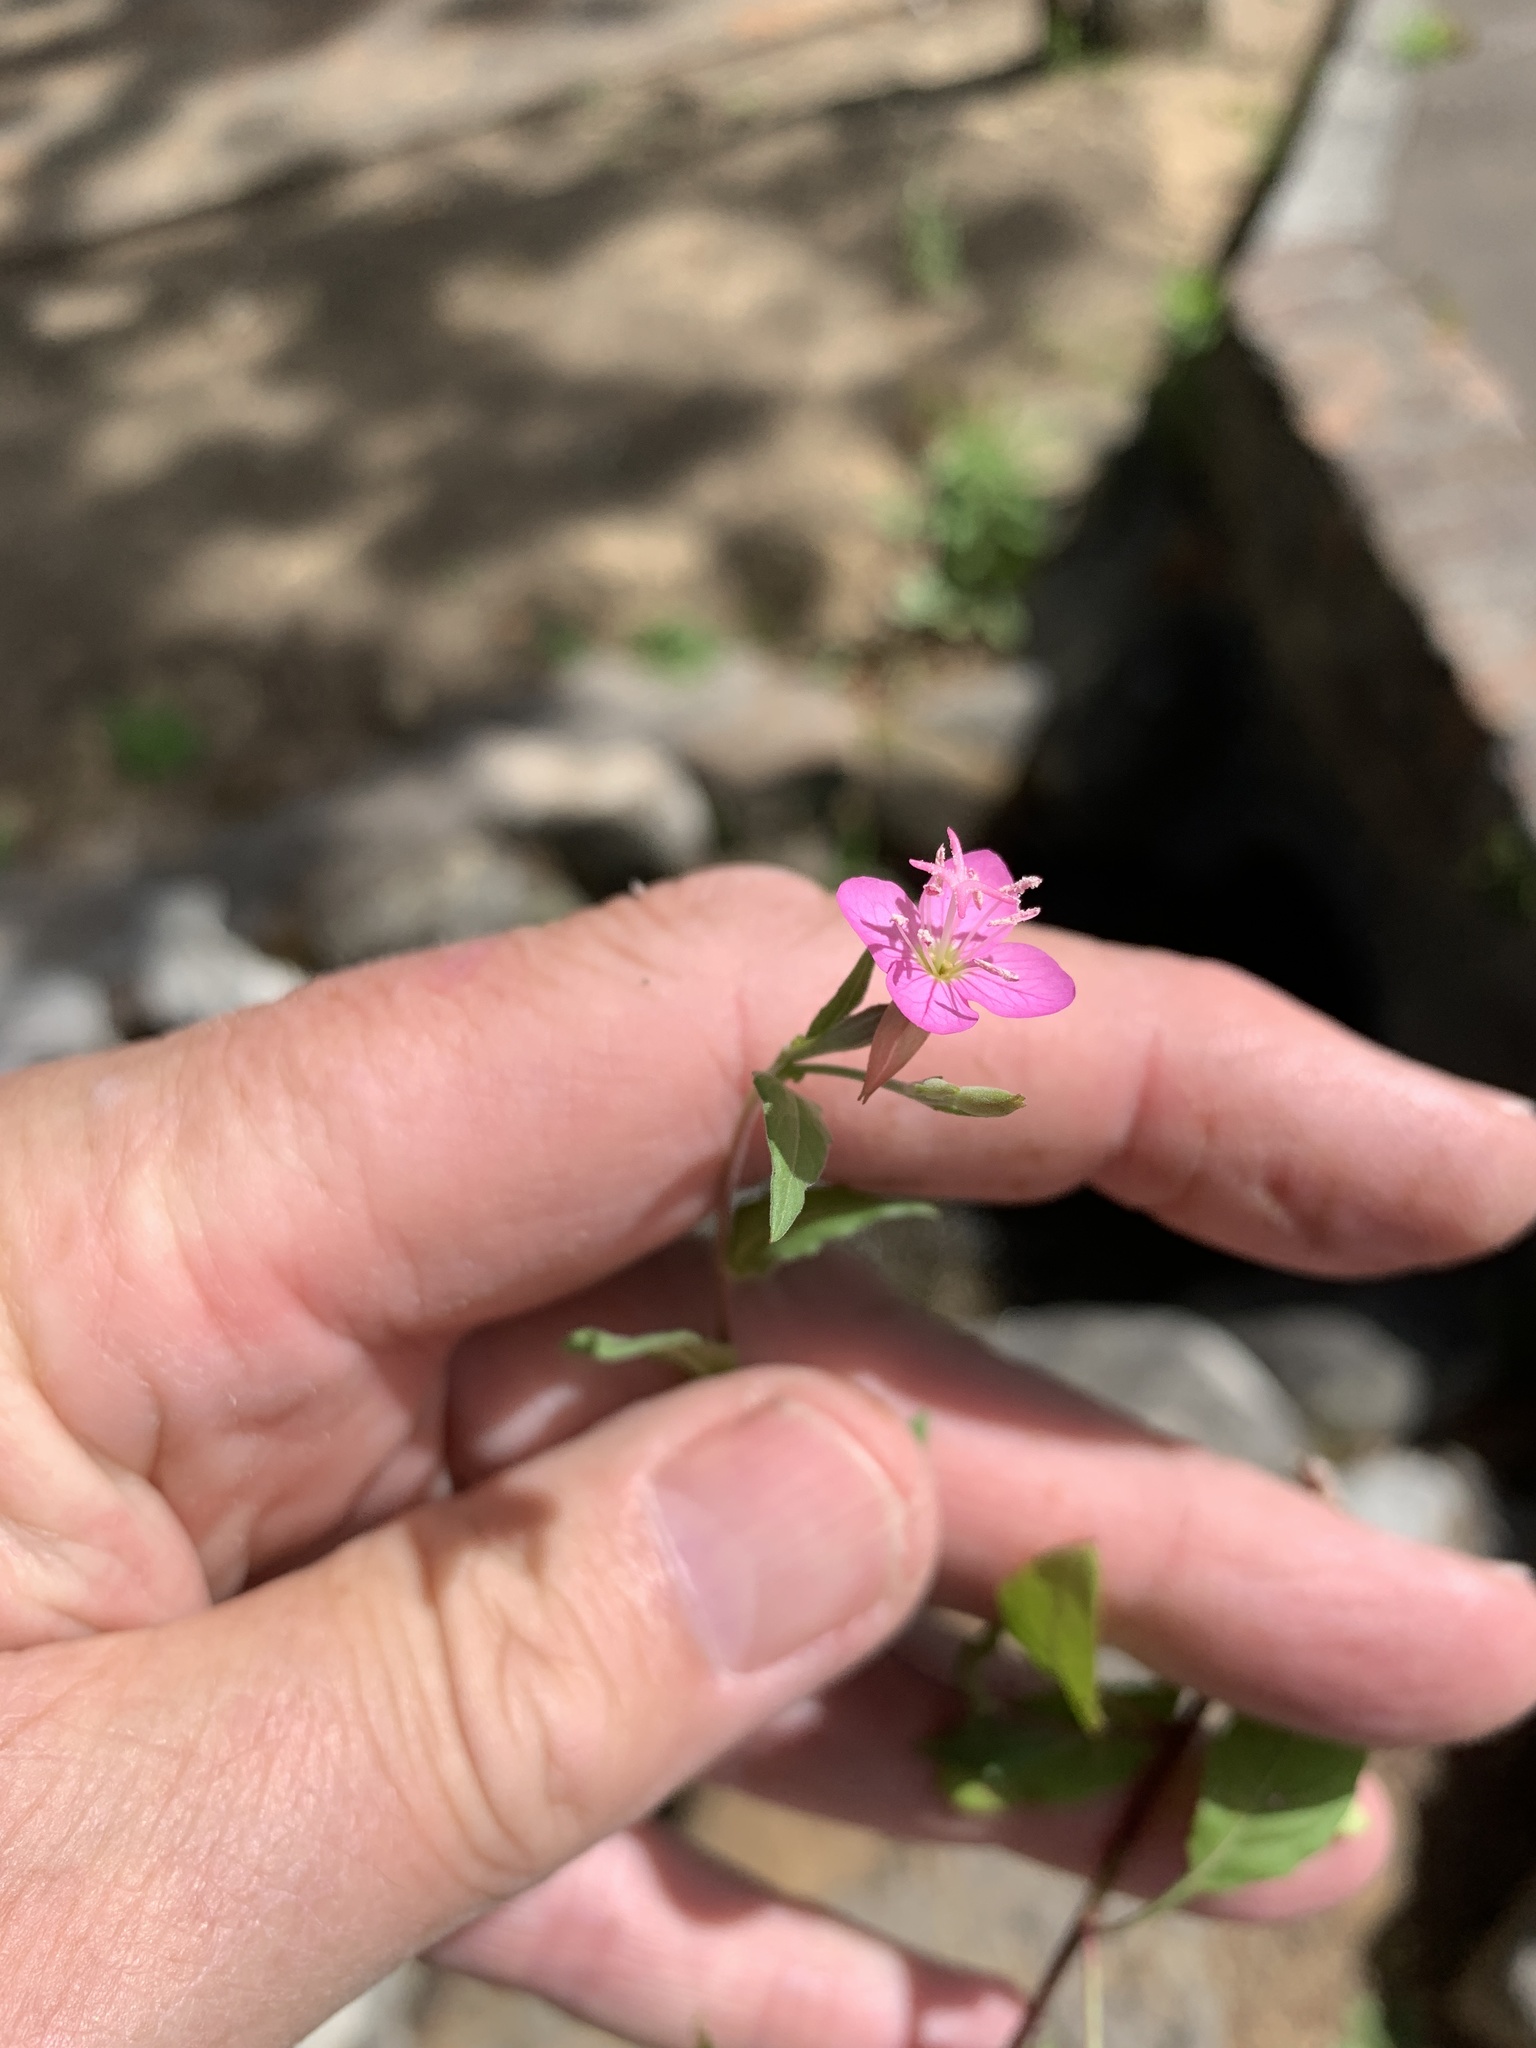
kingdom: Plantae
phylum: Tracheophyta
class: Magnoliopsida
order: Myrtales
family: Onagraceae
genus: Oenothera
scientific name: Oenothera rosea
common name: Rosy evening-primrose
